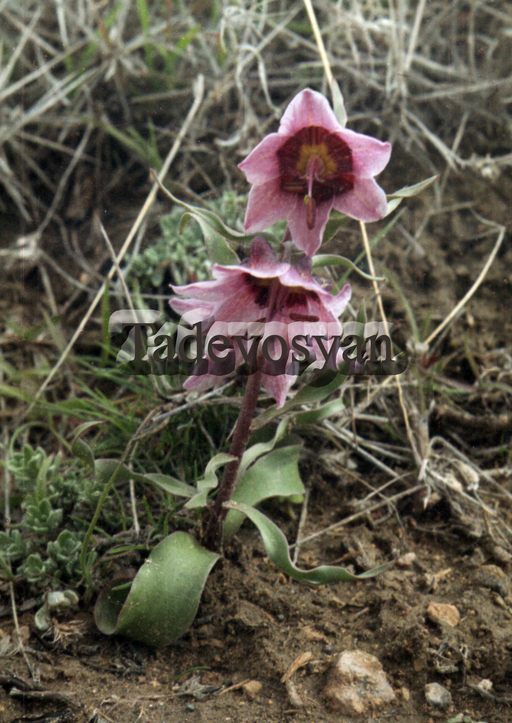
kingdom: Plantae
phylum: Tracheophyta
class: Liliopsida
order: Liliales
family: Liliaceae
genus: Fritillaria
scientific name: Fritillaria gibbosa
